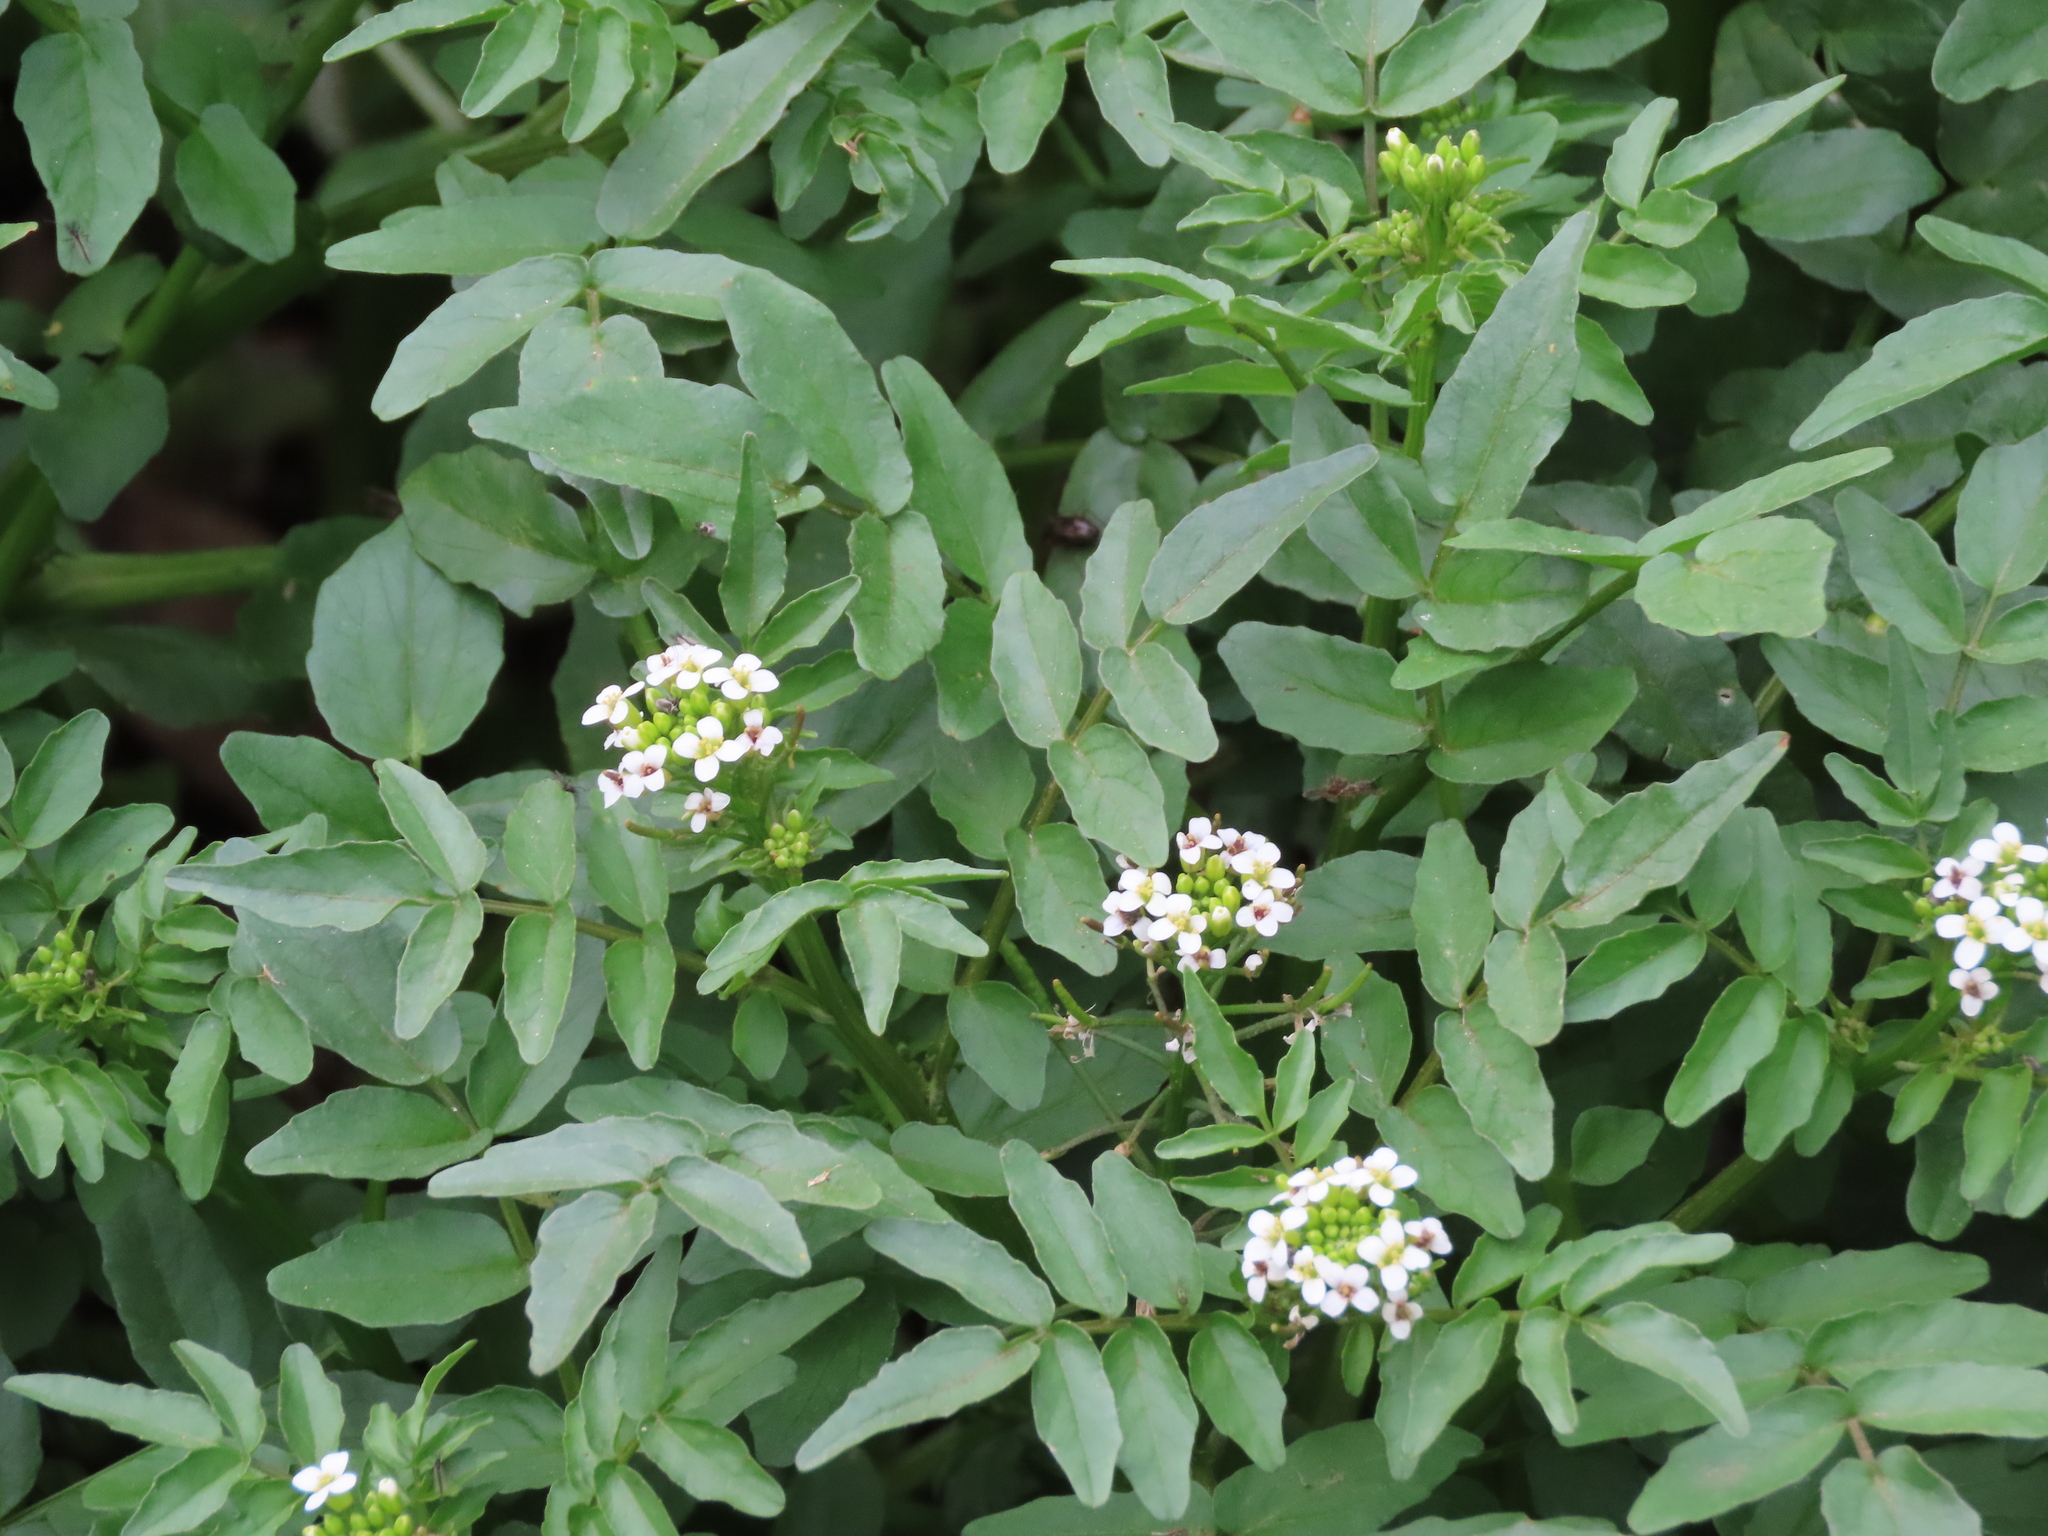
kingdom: Plantae
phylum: Tracheophyta
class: Magnoliopsida
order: Brassicales
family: Brassicaceae
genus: Nasturtium
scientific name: Nasturtium officinale
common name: Watercress
